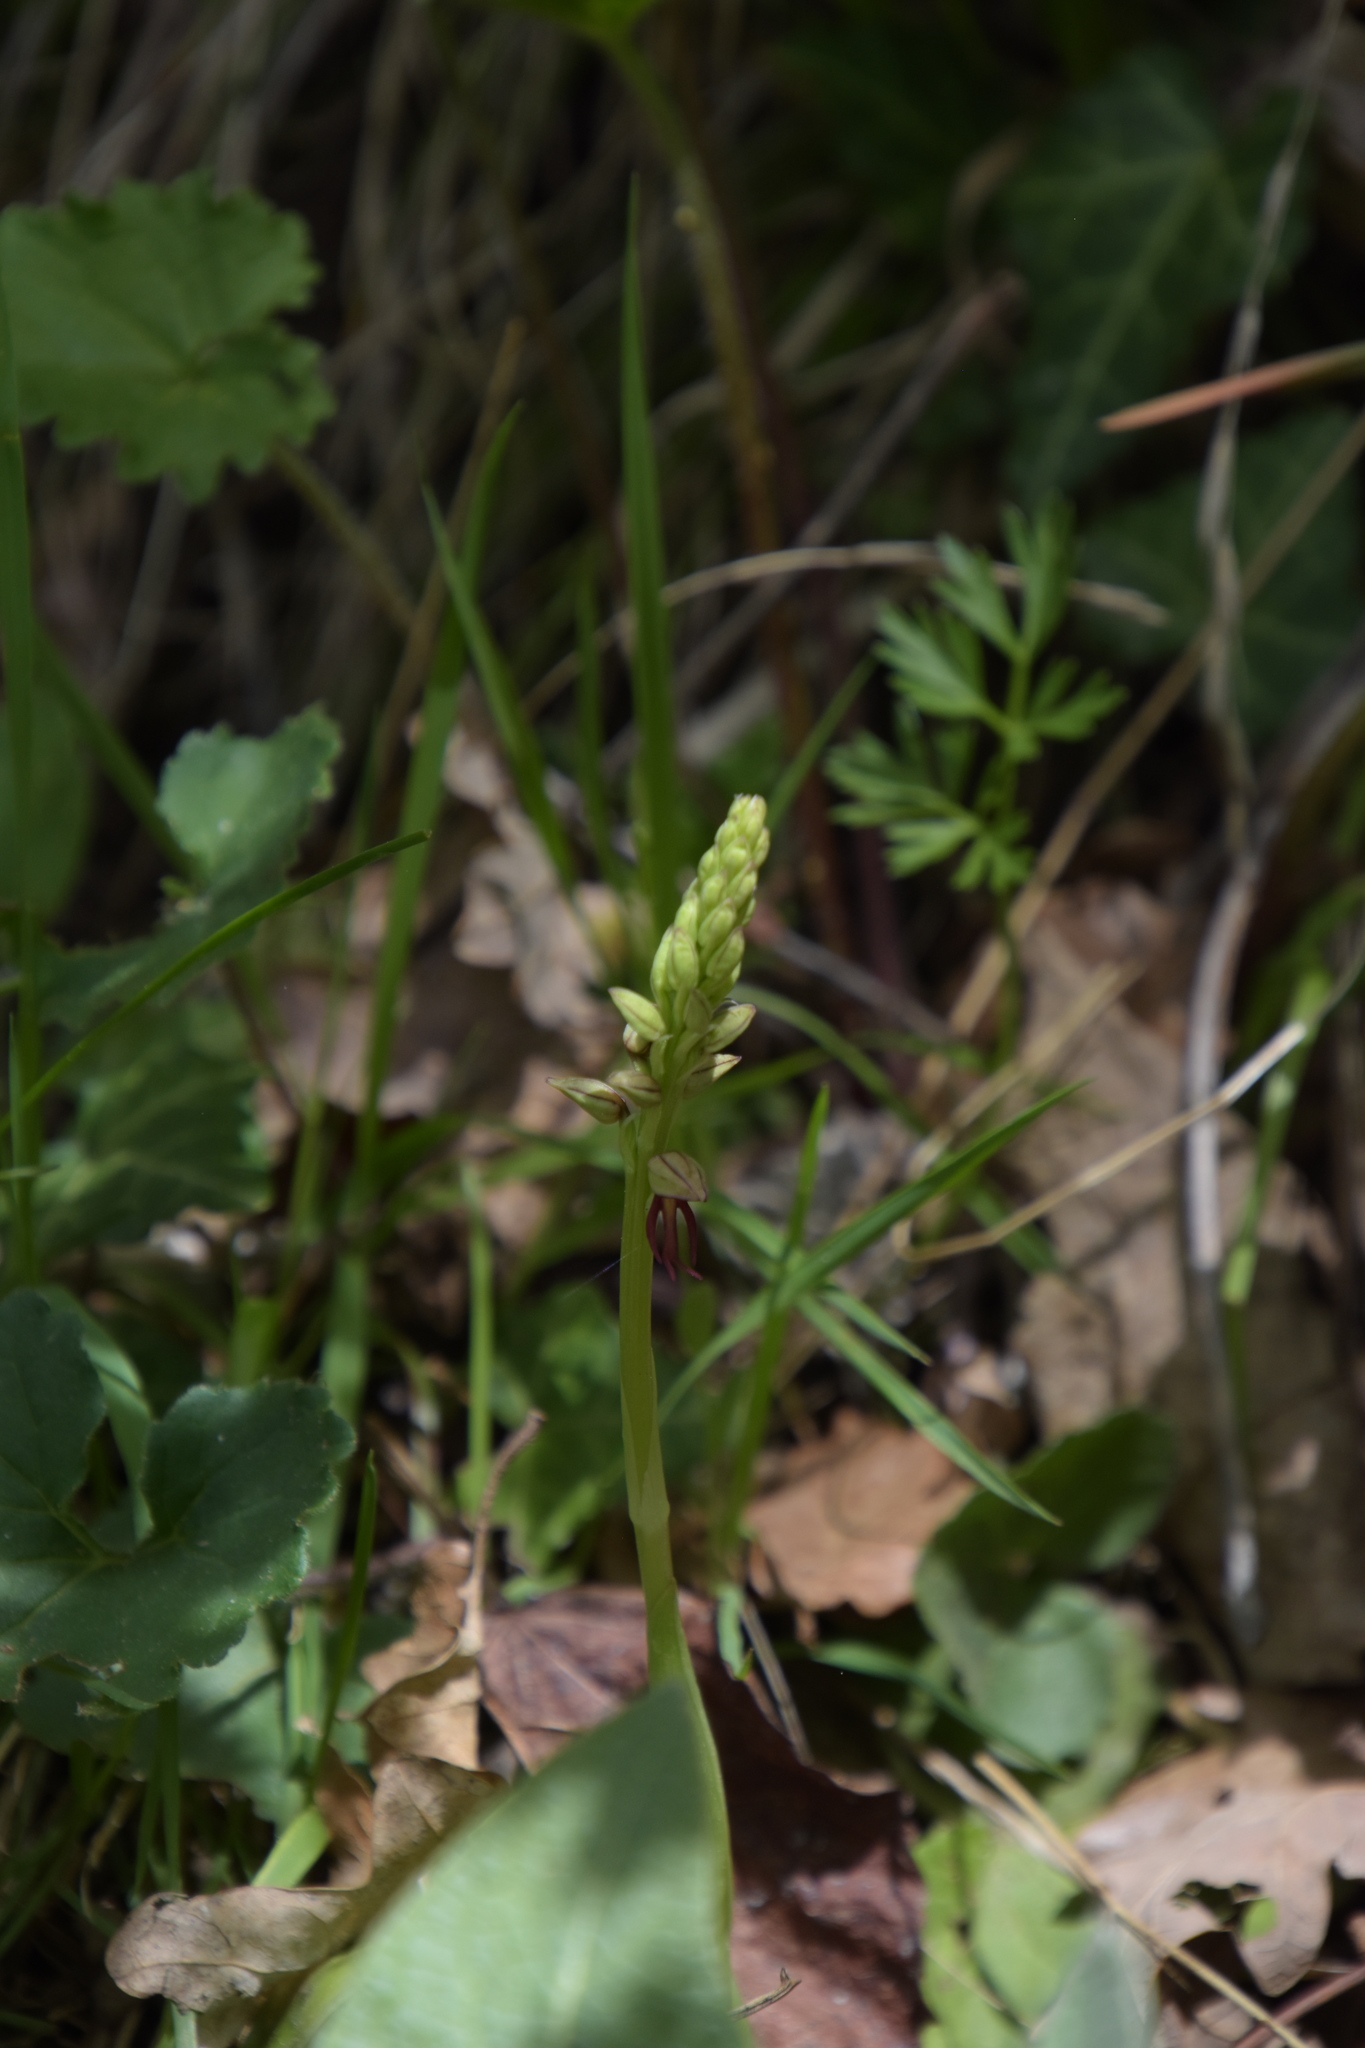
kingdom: Plantae
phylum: Tracheophyta
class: Liliopsida
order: Asparagales
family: Orchidaceae
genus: Orchis
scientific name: Orchis anthropophora
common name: Man orchid
